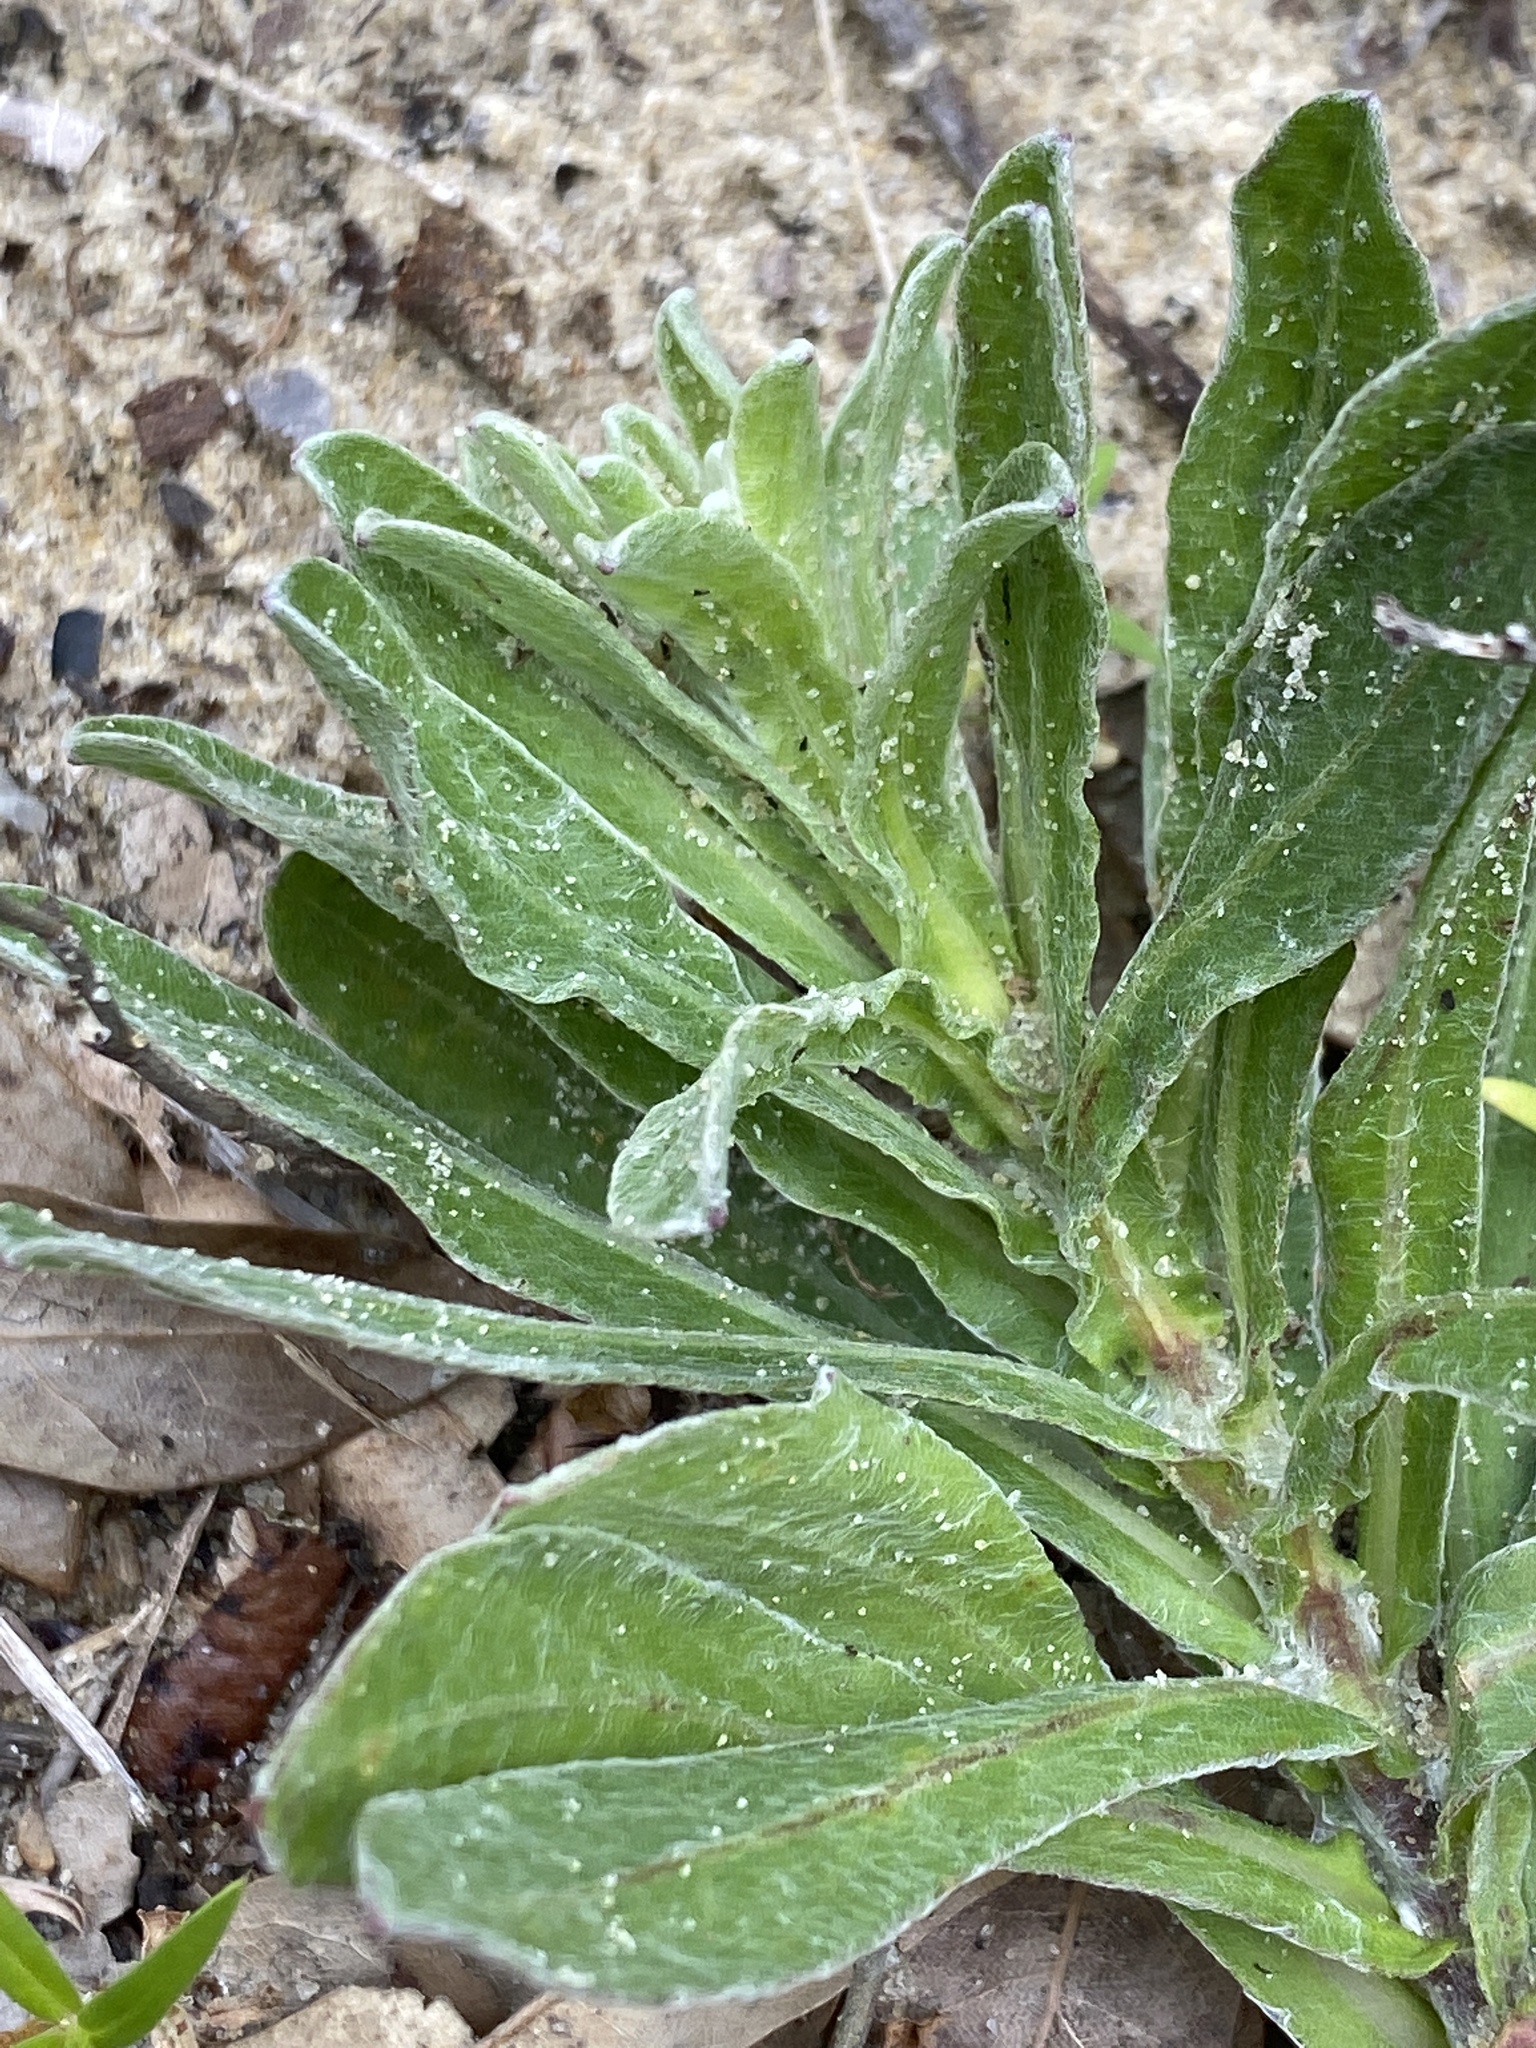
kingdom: Plantae
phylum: Tracheophyta
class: Magnoliopsida
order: Asterales
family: Asteraceae
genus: Chrysopsis
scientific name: Chrysopsis gossypina
